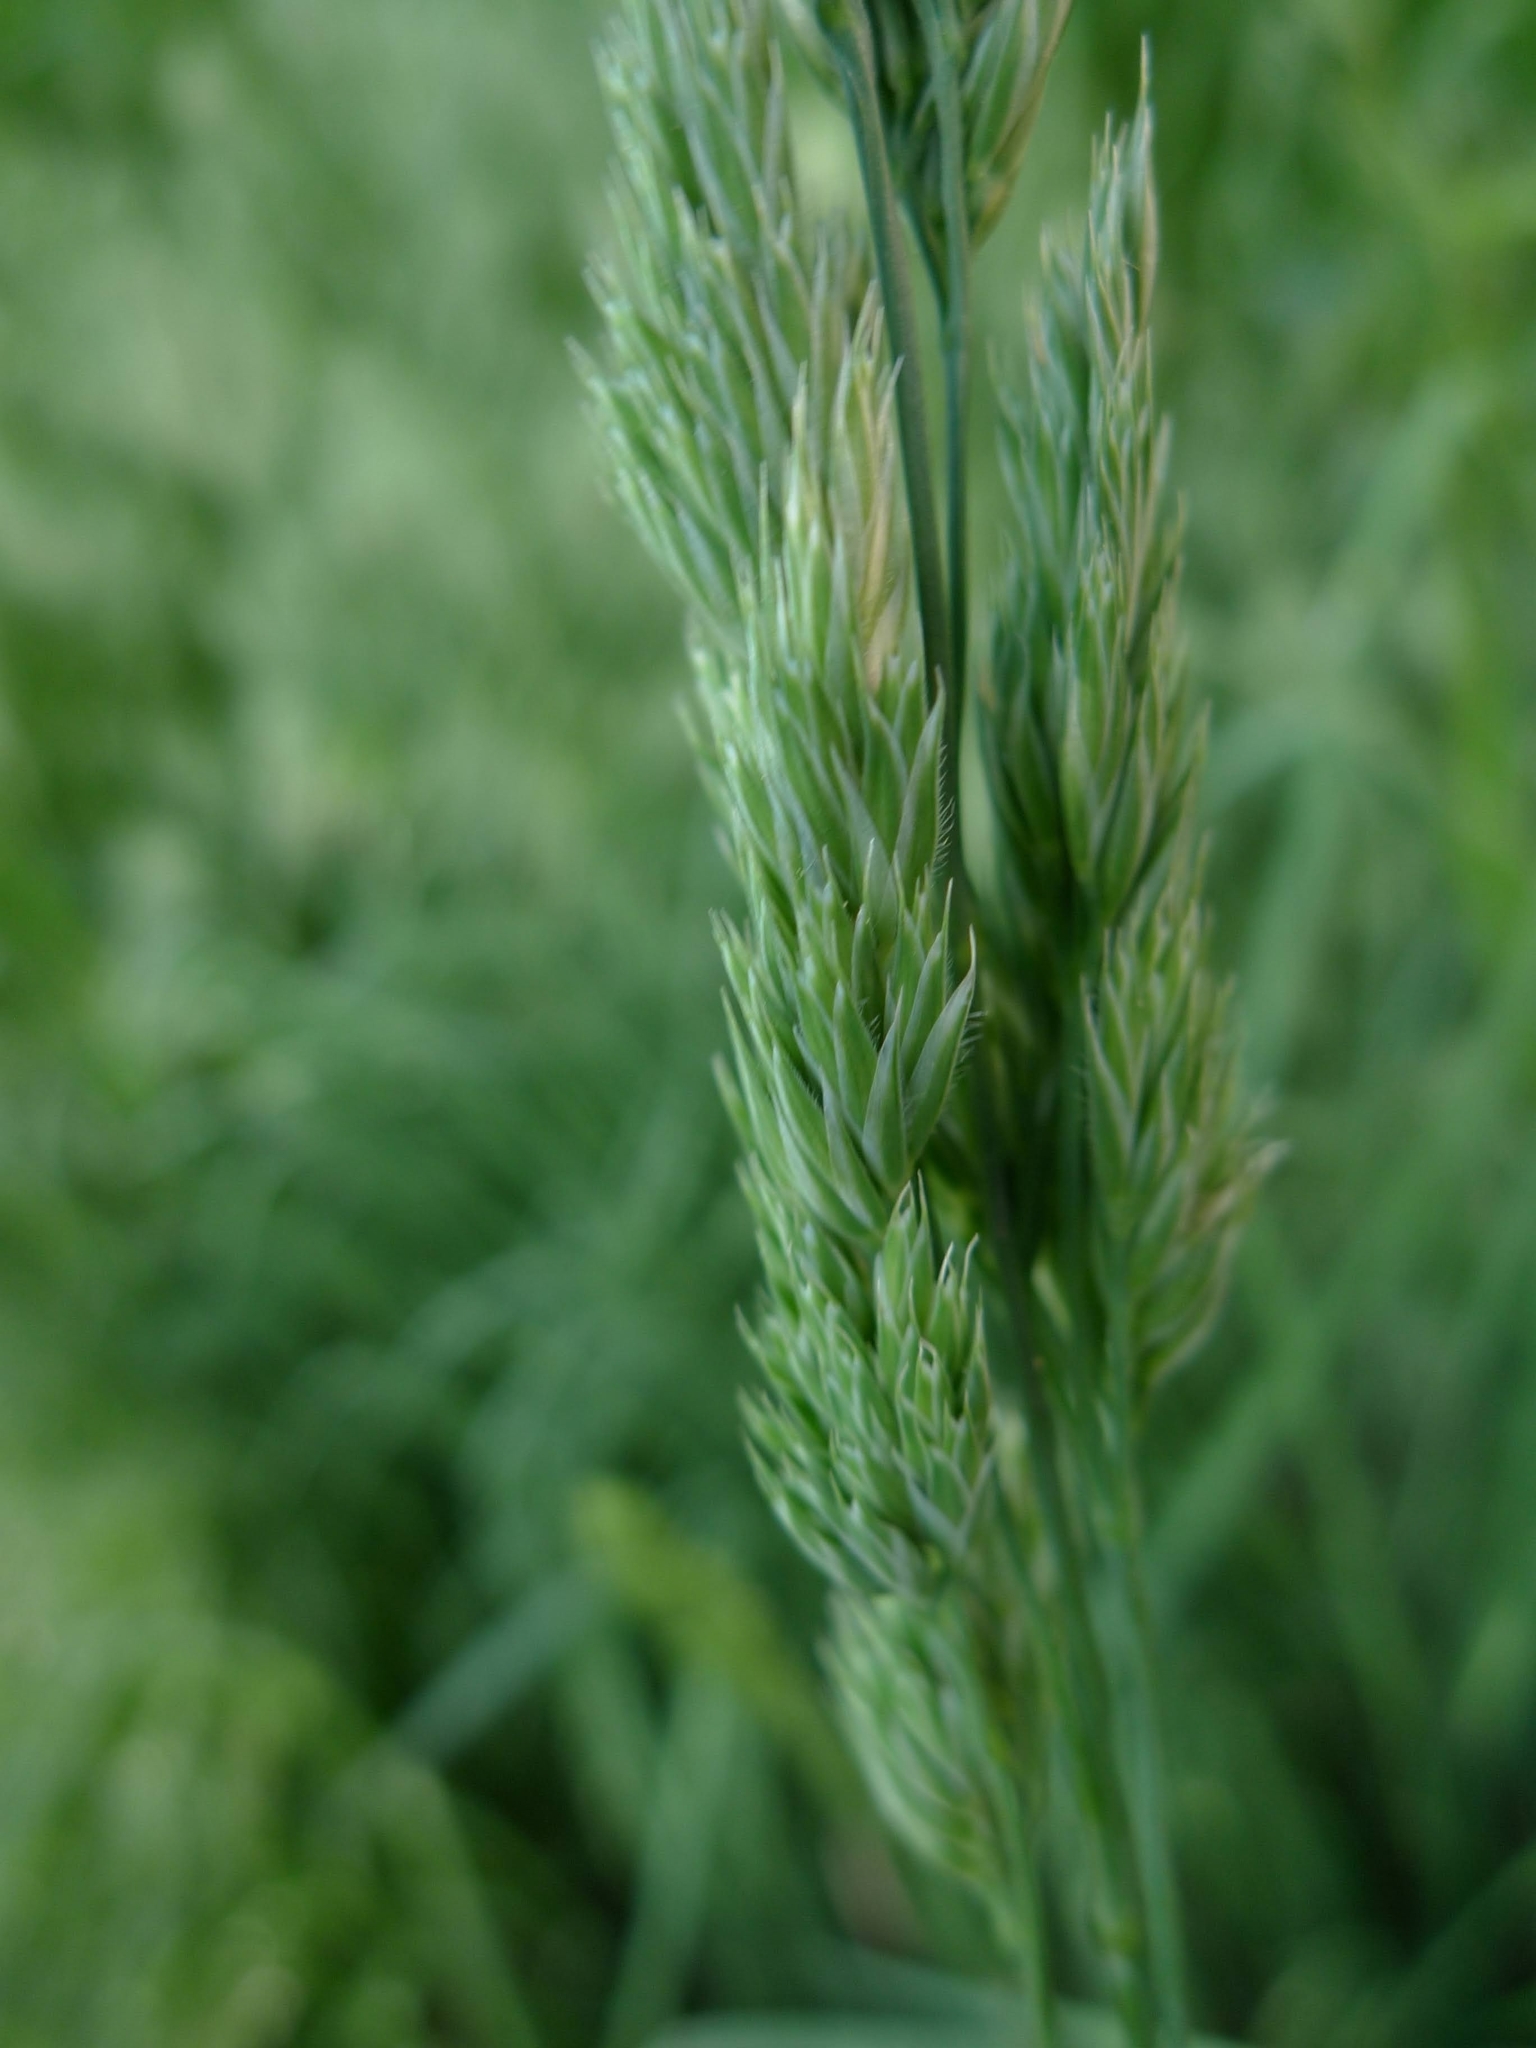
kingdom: Plantae
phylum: Tracheophyta
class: Liliopsida
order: Poales
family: Poaceae
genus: Dactylis
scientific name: Dactylis glomerata
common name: Orchardgrass
